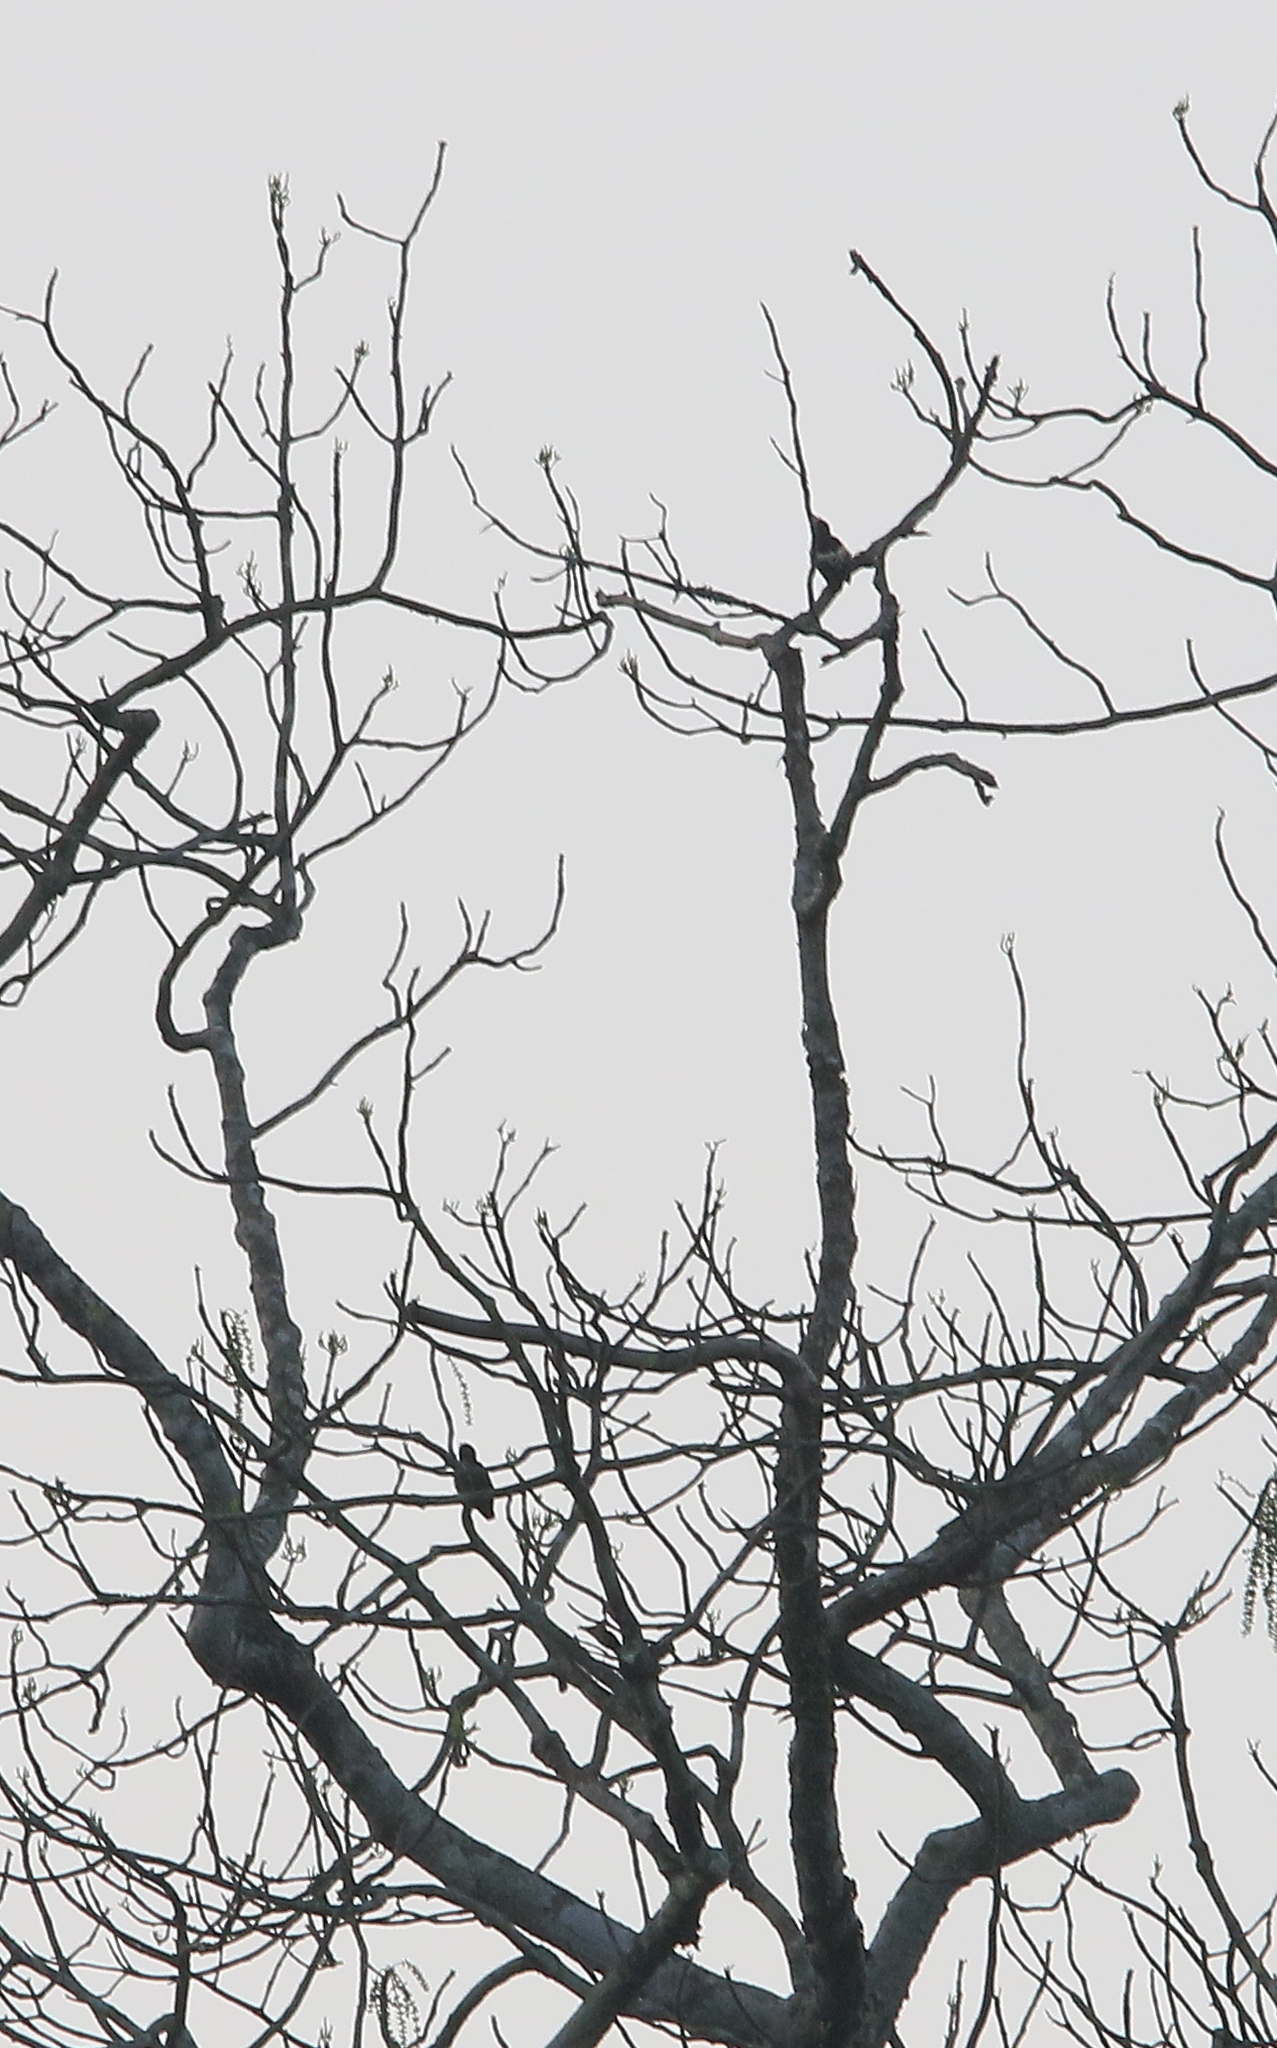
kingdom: Animalia
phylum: Chordata
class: Aves
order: Piciformes
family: Picidae
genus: Hemicircus
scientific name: Hemicircus canente
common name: Heart-spotted woodpecker
